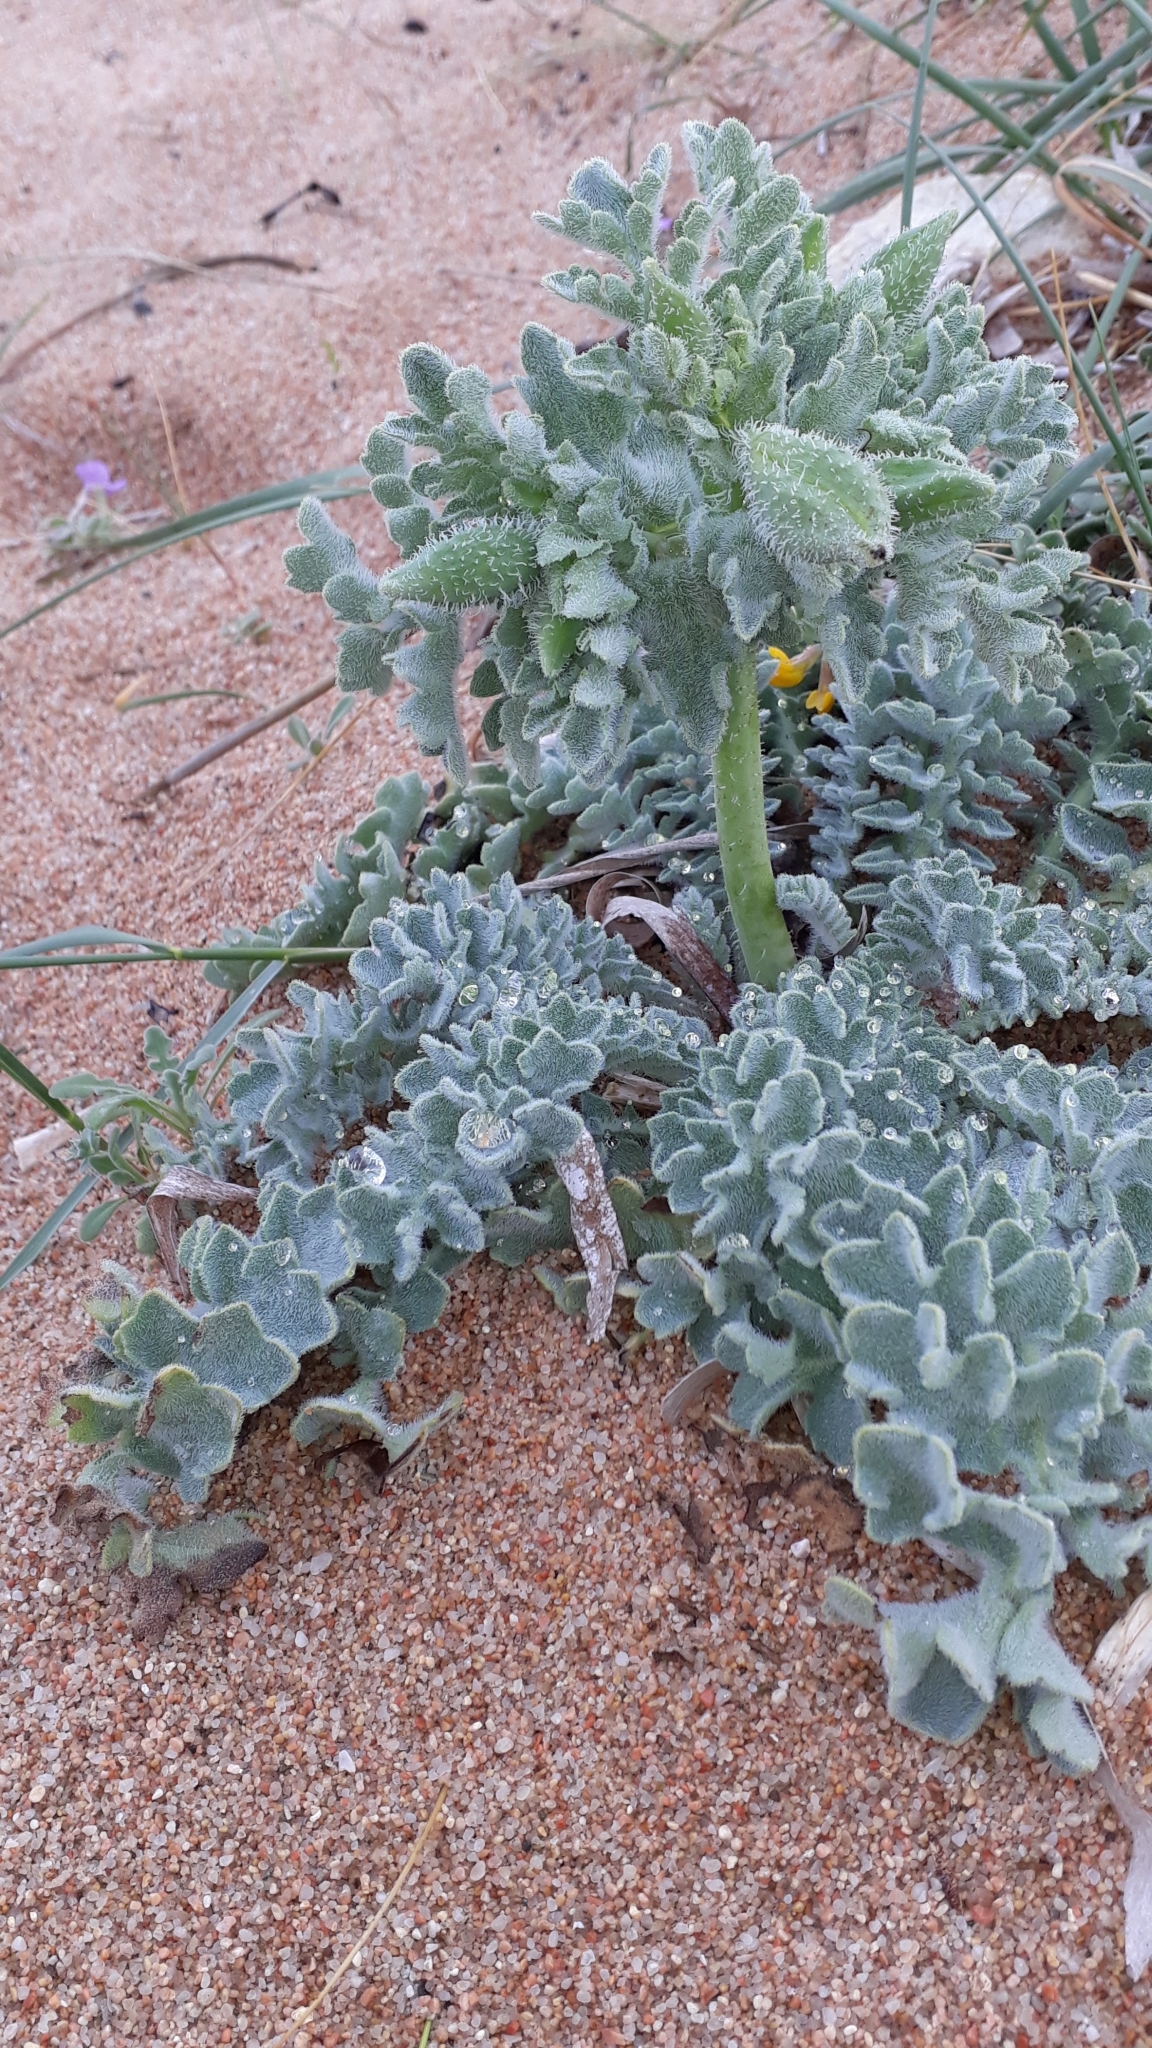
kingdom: Plantae
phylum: Tracheophyta
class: Magnoliopsida
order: Ranunculales
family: Papaveraceae
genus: Glaucium
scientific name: Glaucium flavum
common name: Yellow horned-poppy
